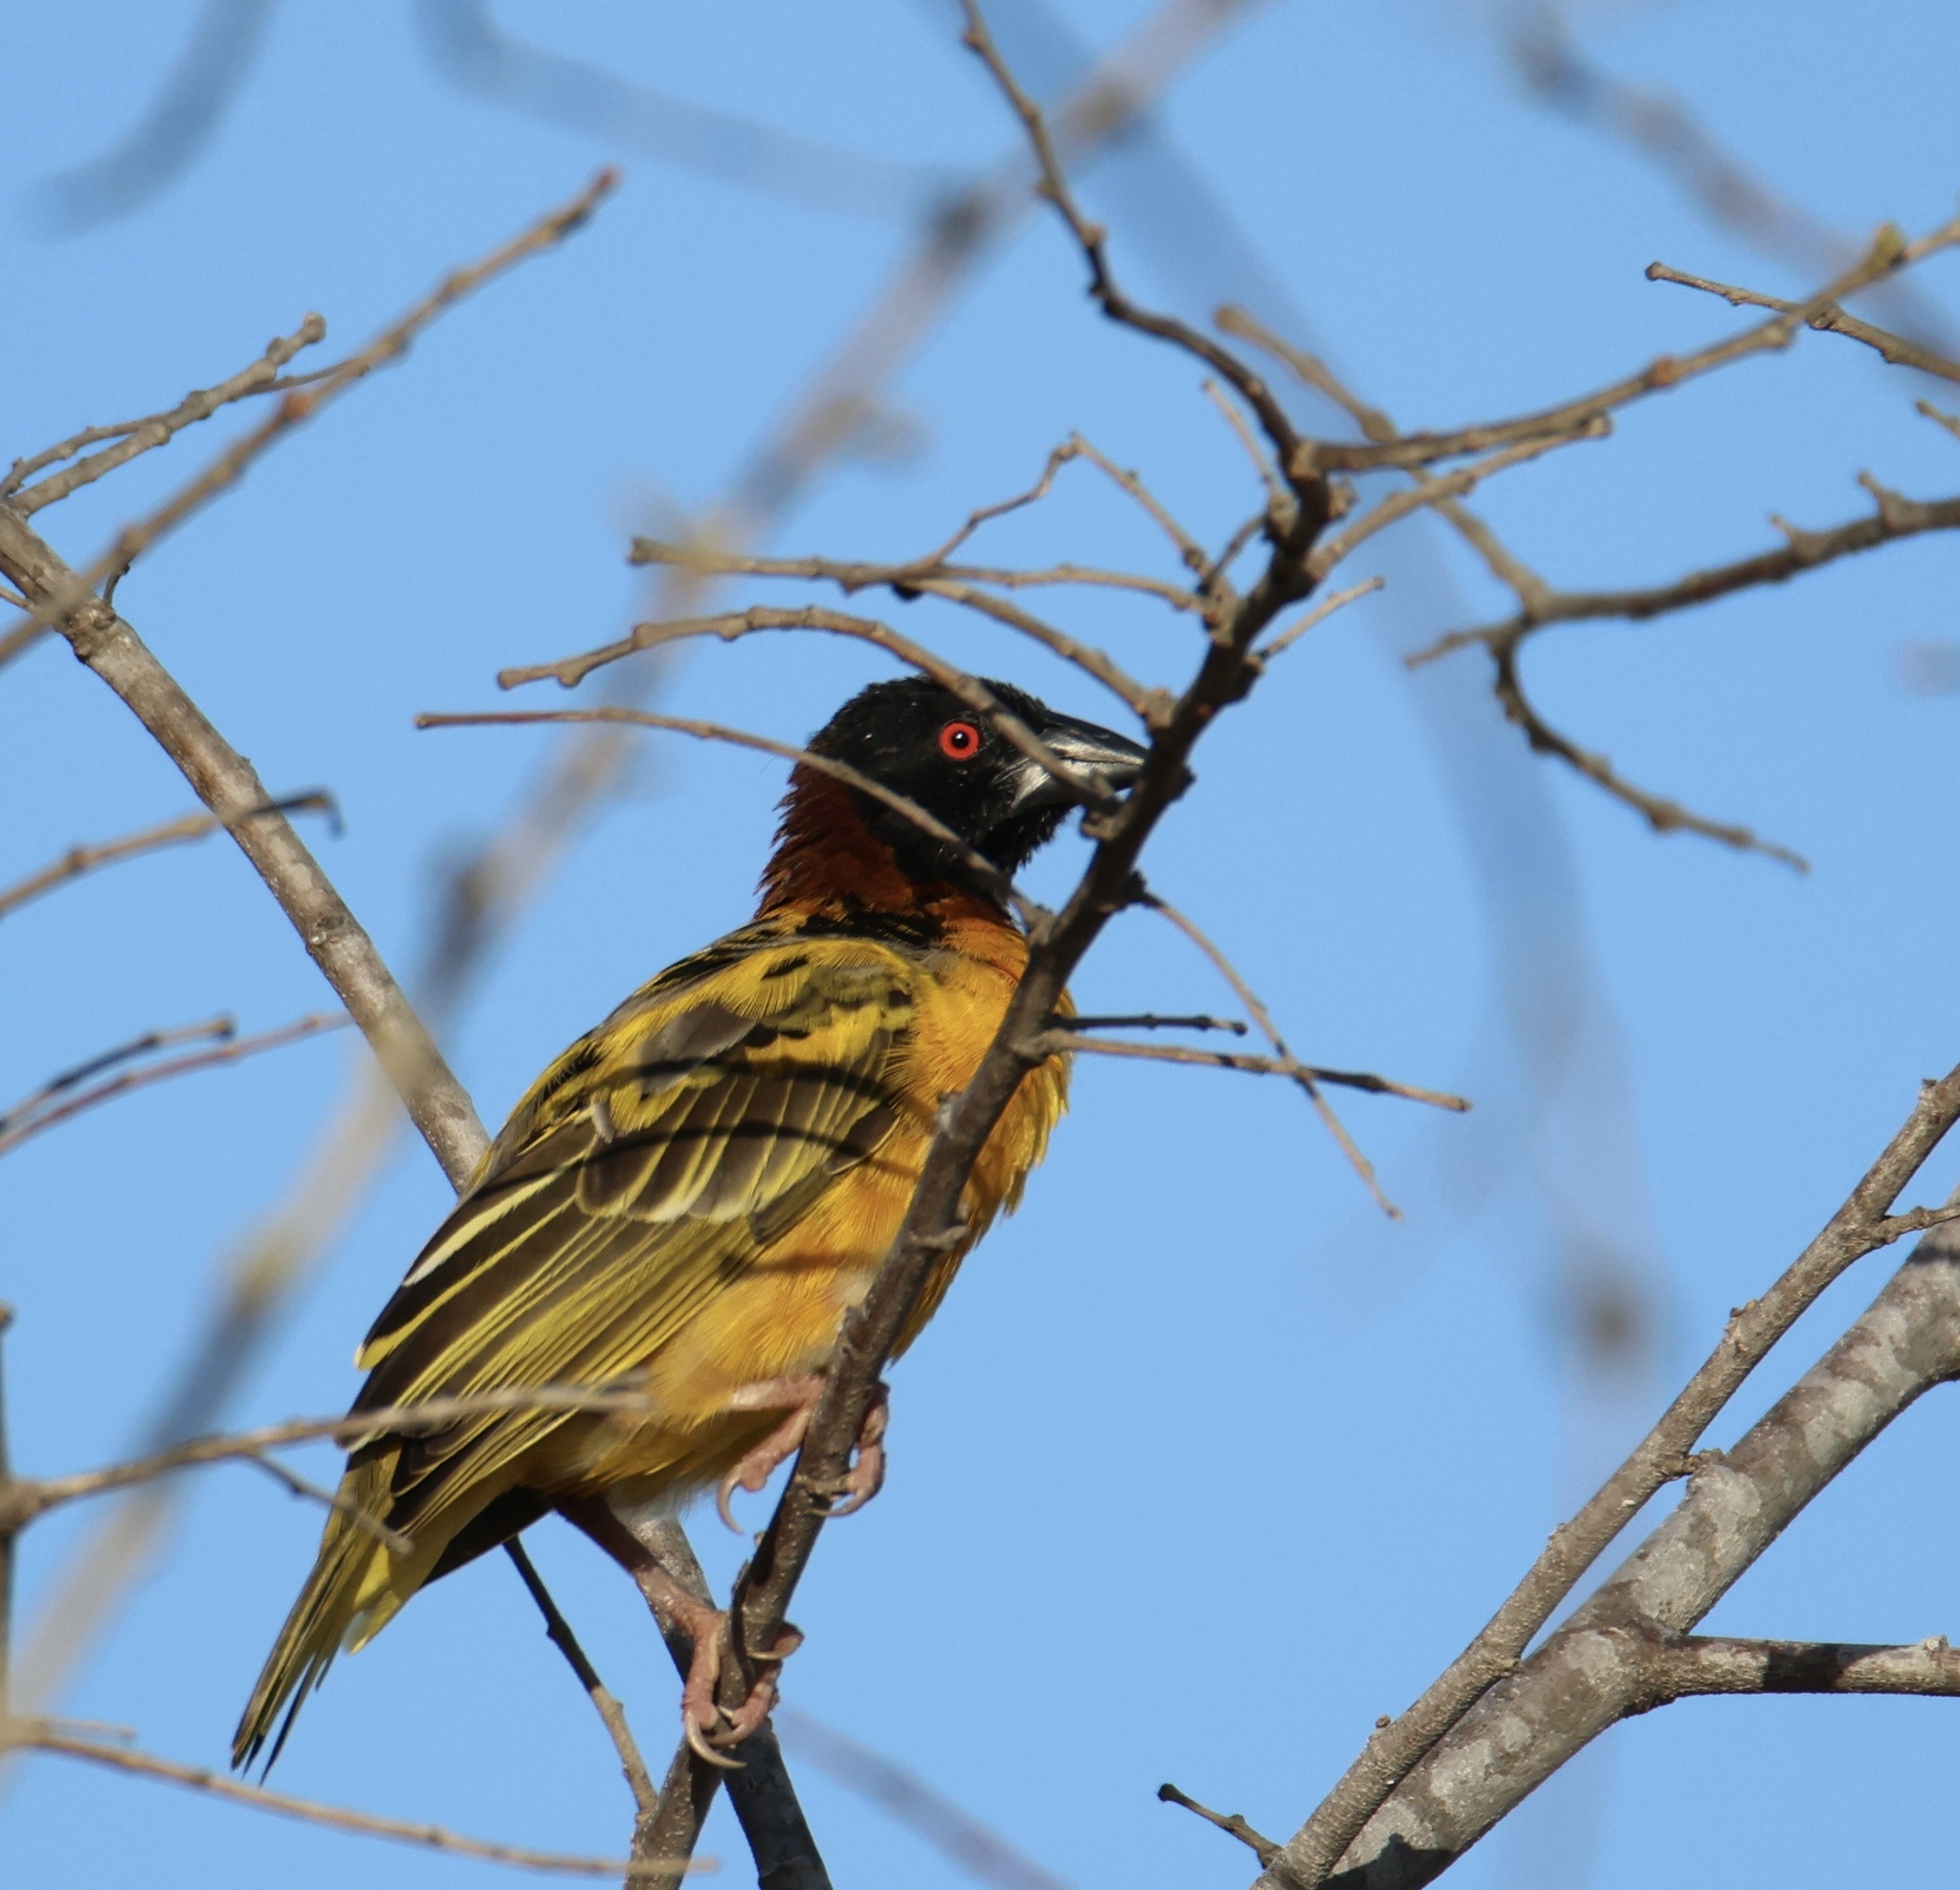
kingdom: Animalia
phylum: Chordata
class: Aves
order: Passeriformes
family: Ploceidae
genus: Ploceus
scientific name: Ploceus cucullatus
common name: Village weaver
